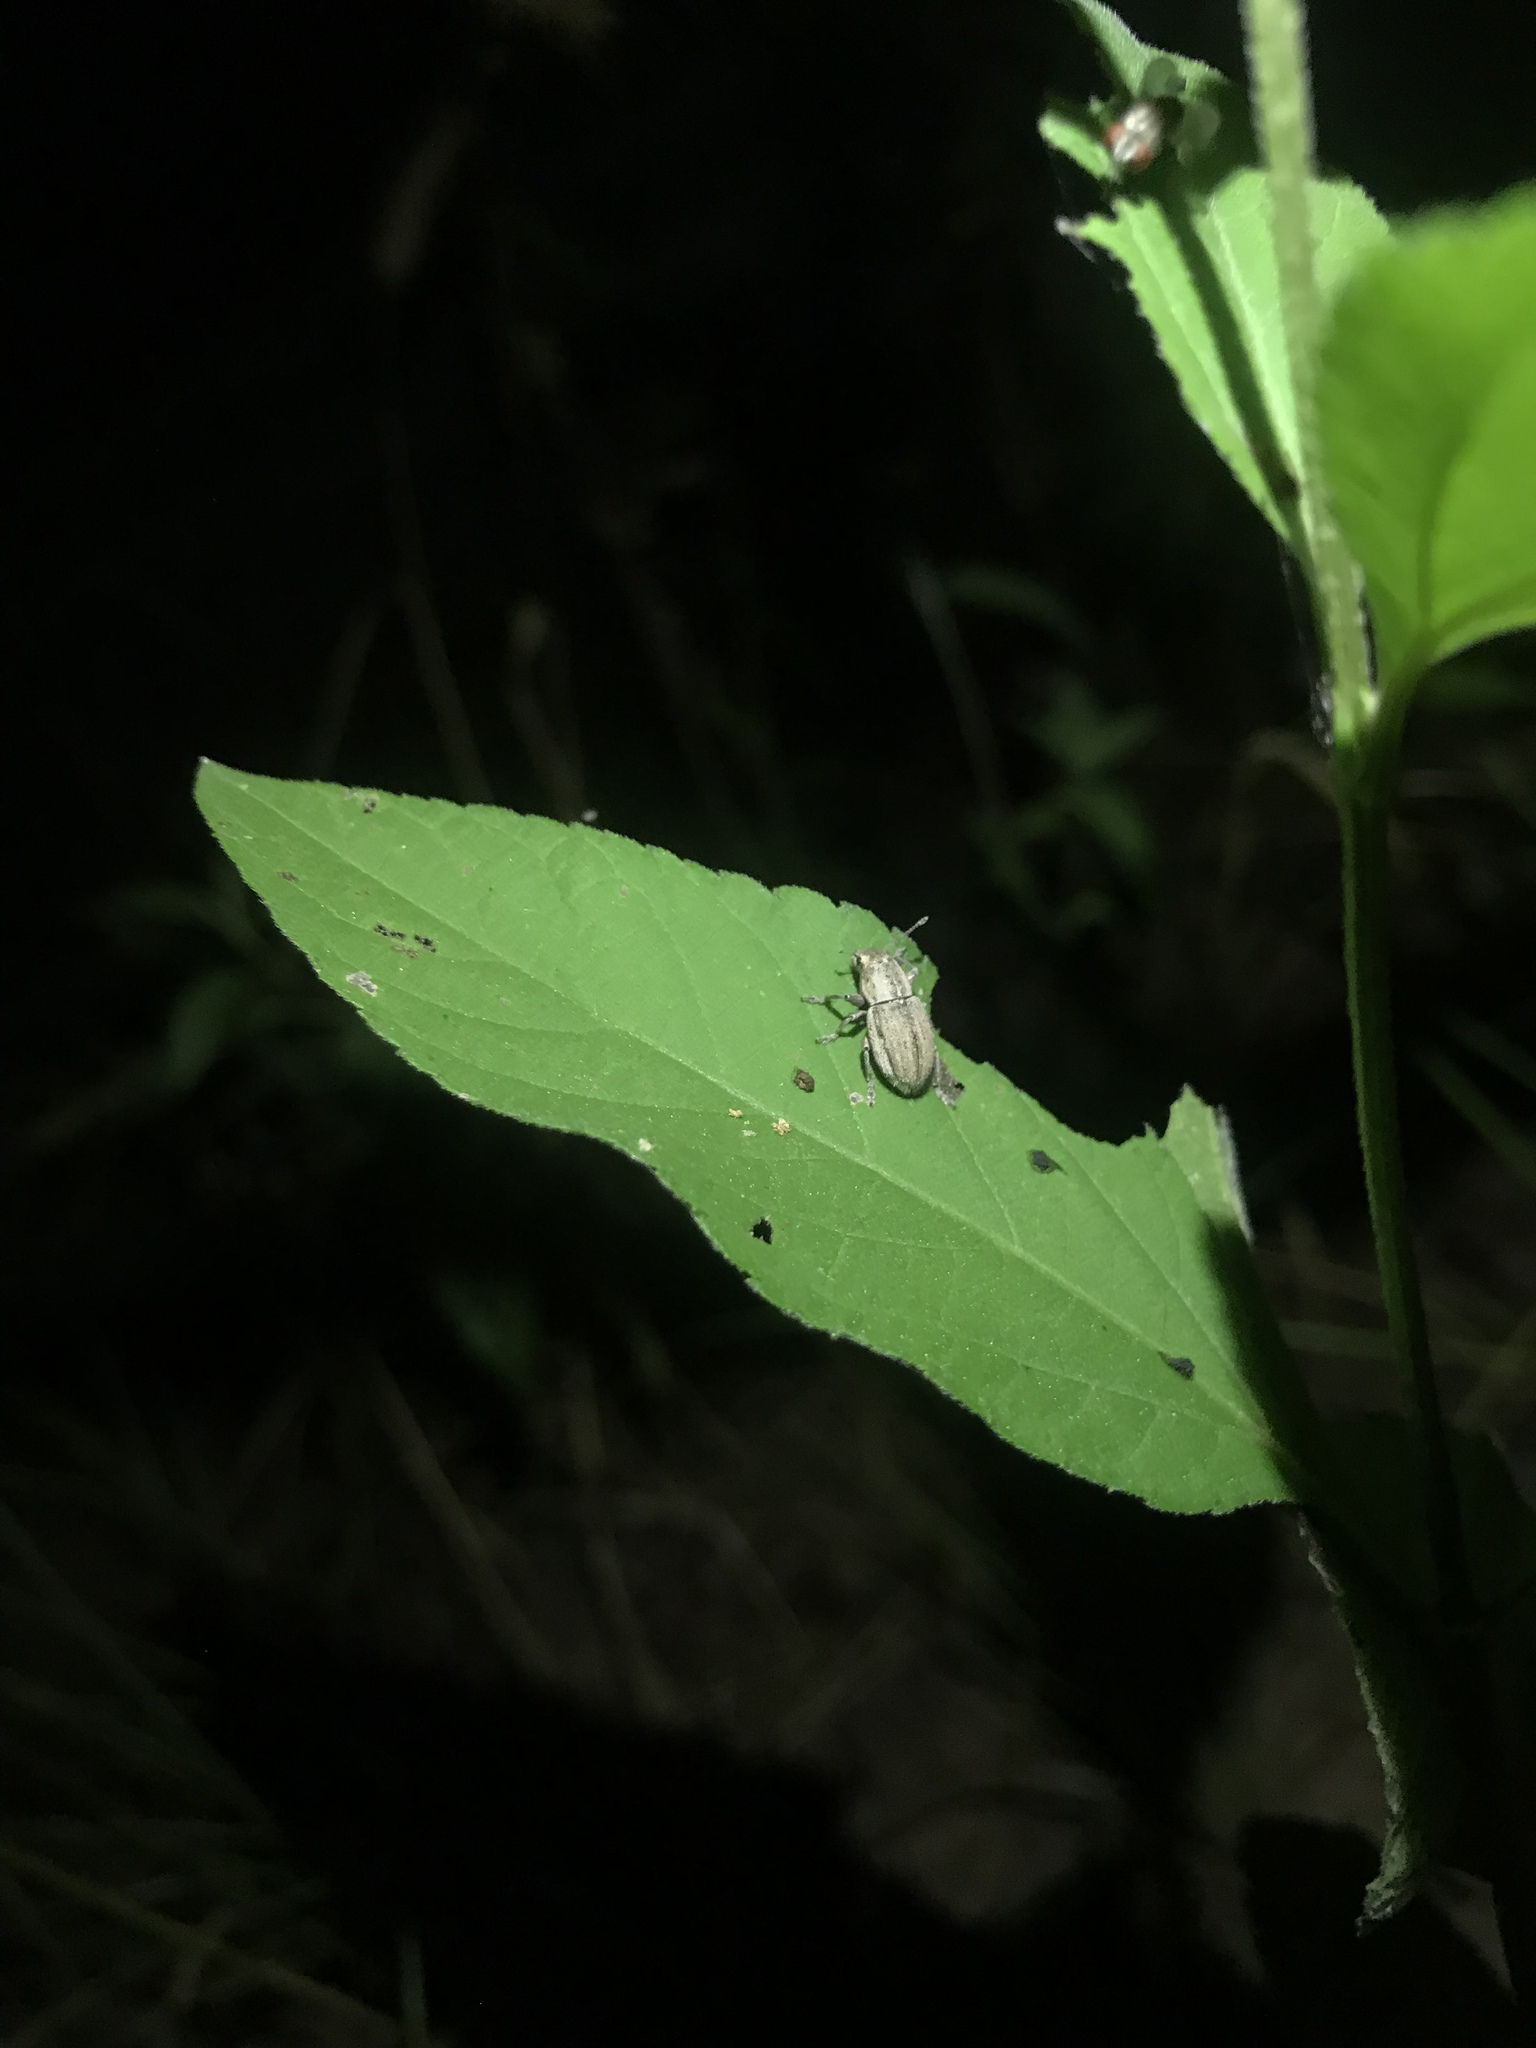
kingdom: Animalia
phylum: Arthropoda
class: Insecta
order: Coleoptera
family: Curculionidae
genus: Naupactus
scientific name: Naupactus peregrinus
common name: Whitefringed beetle
